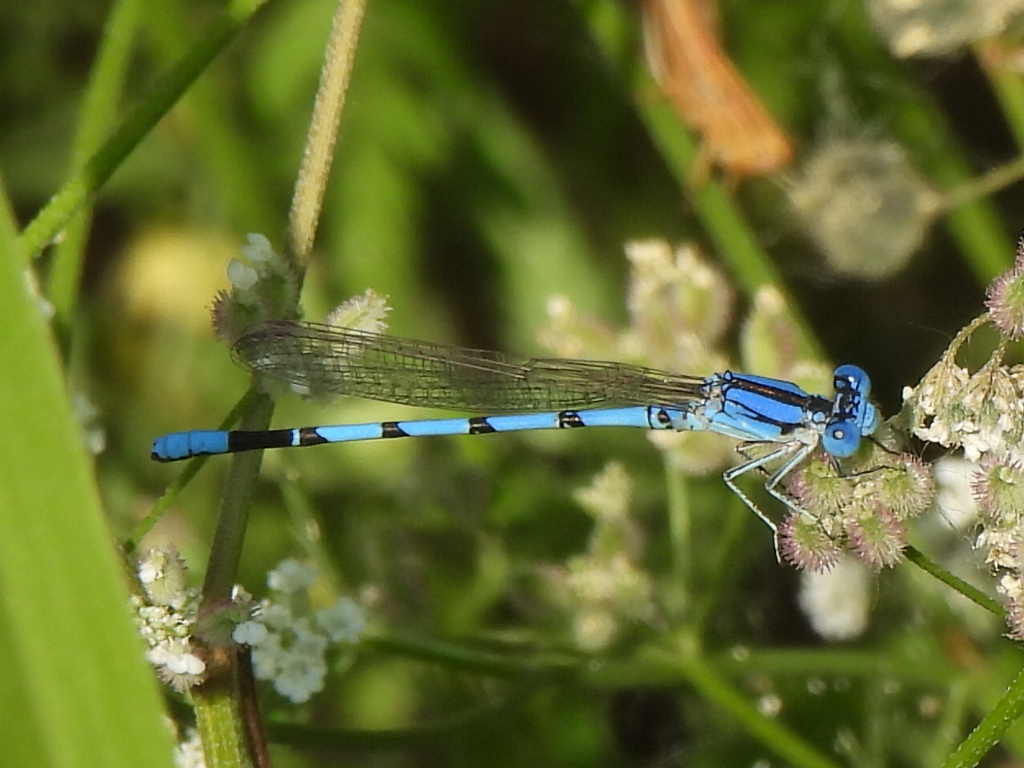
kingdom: Animalia
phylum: Arthropoda
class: Insecta
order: Odonata
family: Coenagrionidae
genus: Argia
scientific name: Argia nahuana
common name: Aztec dancer
